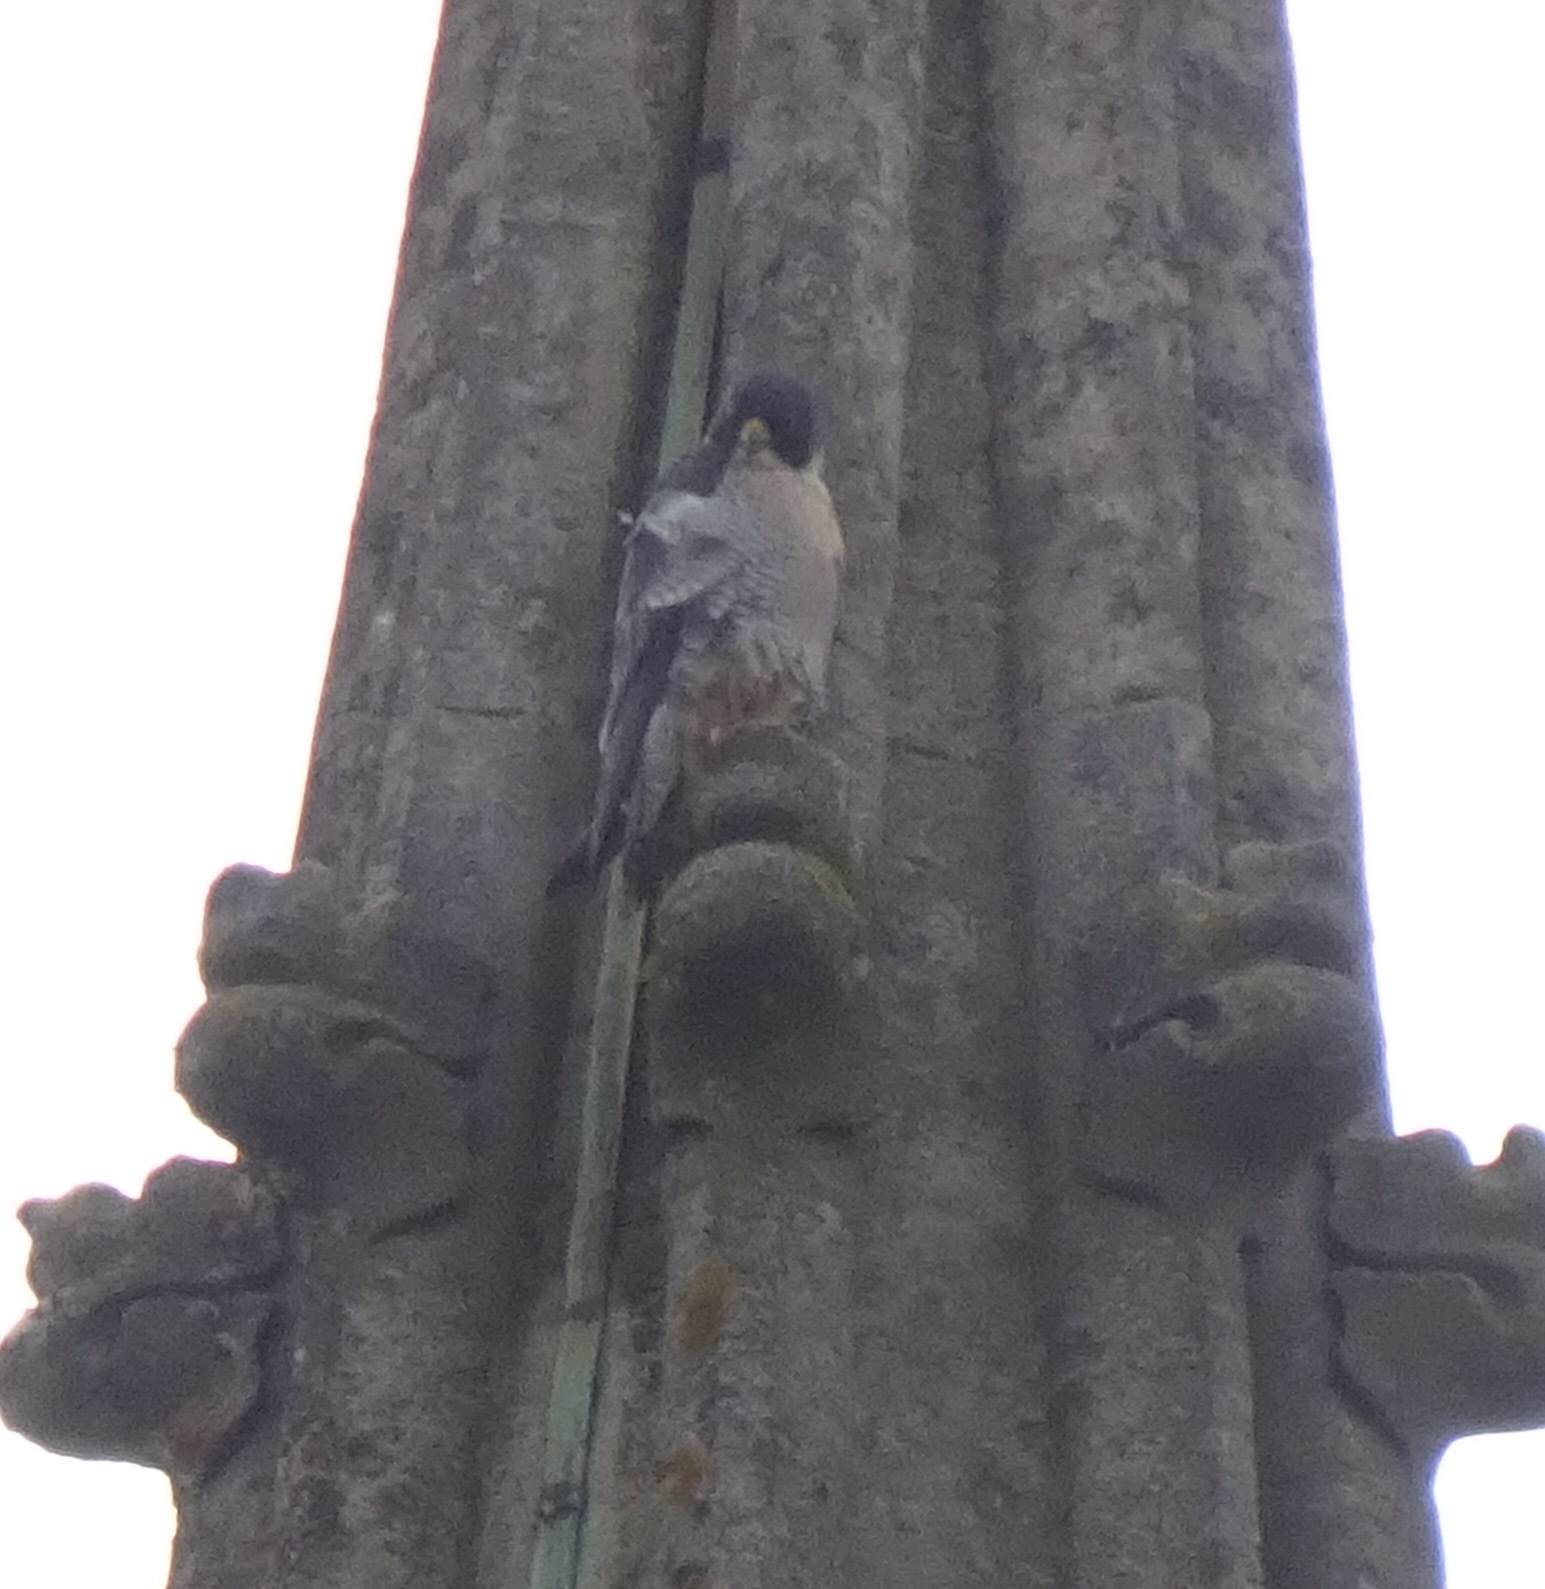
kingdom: Animalia
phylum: Chordata
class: Aves
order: Falconiformes
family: Falconidae
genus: Falco
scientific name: Falco peregrinus
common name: Peregrine falcon
